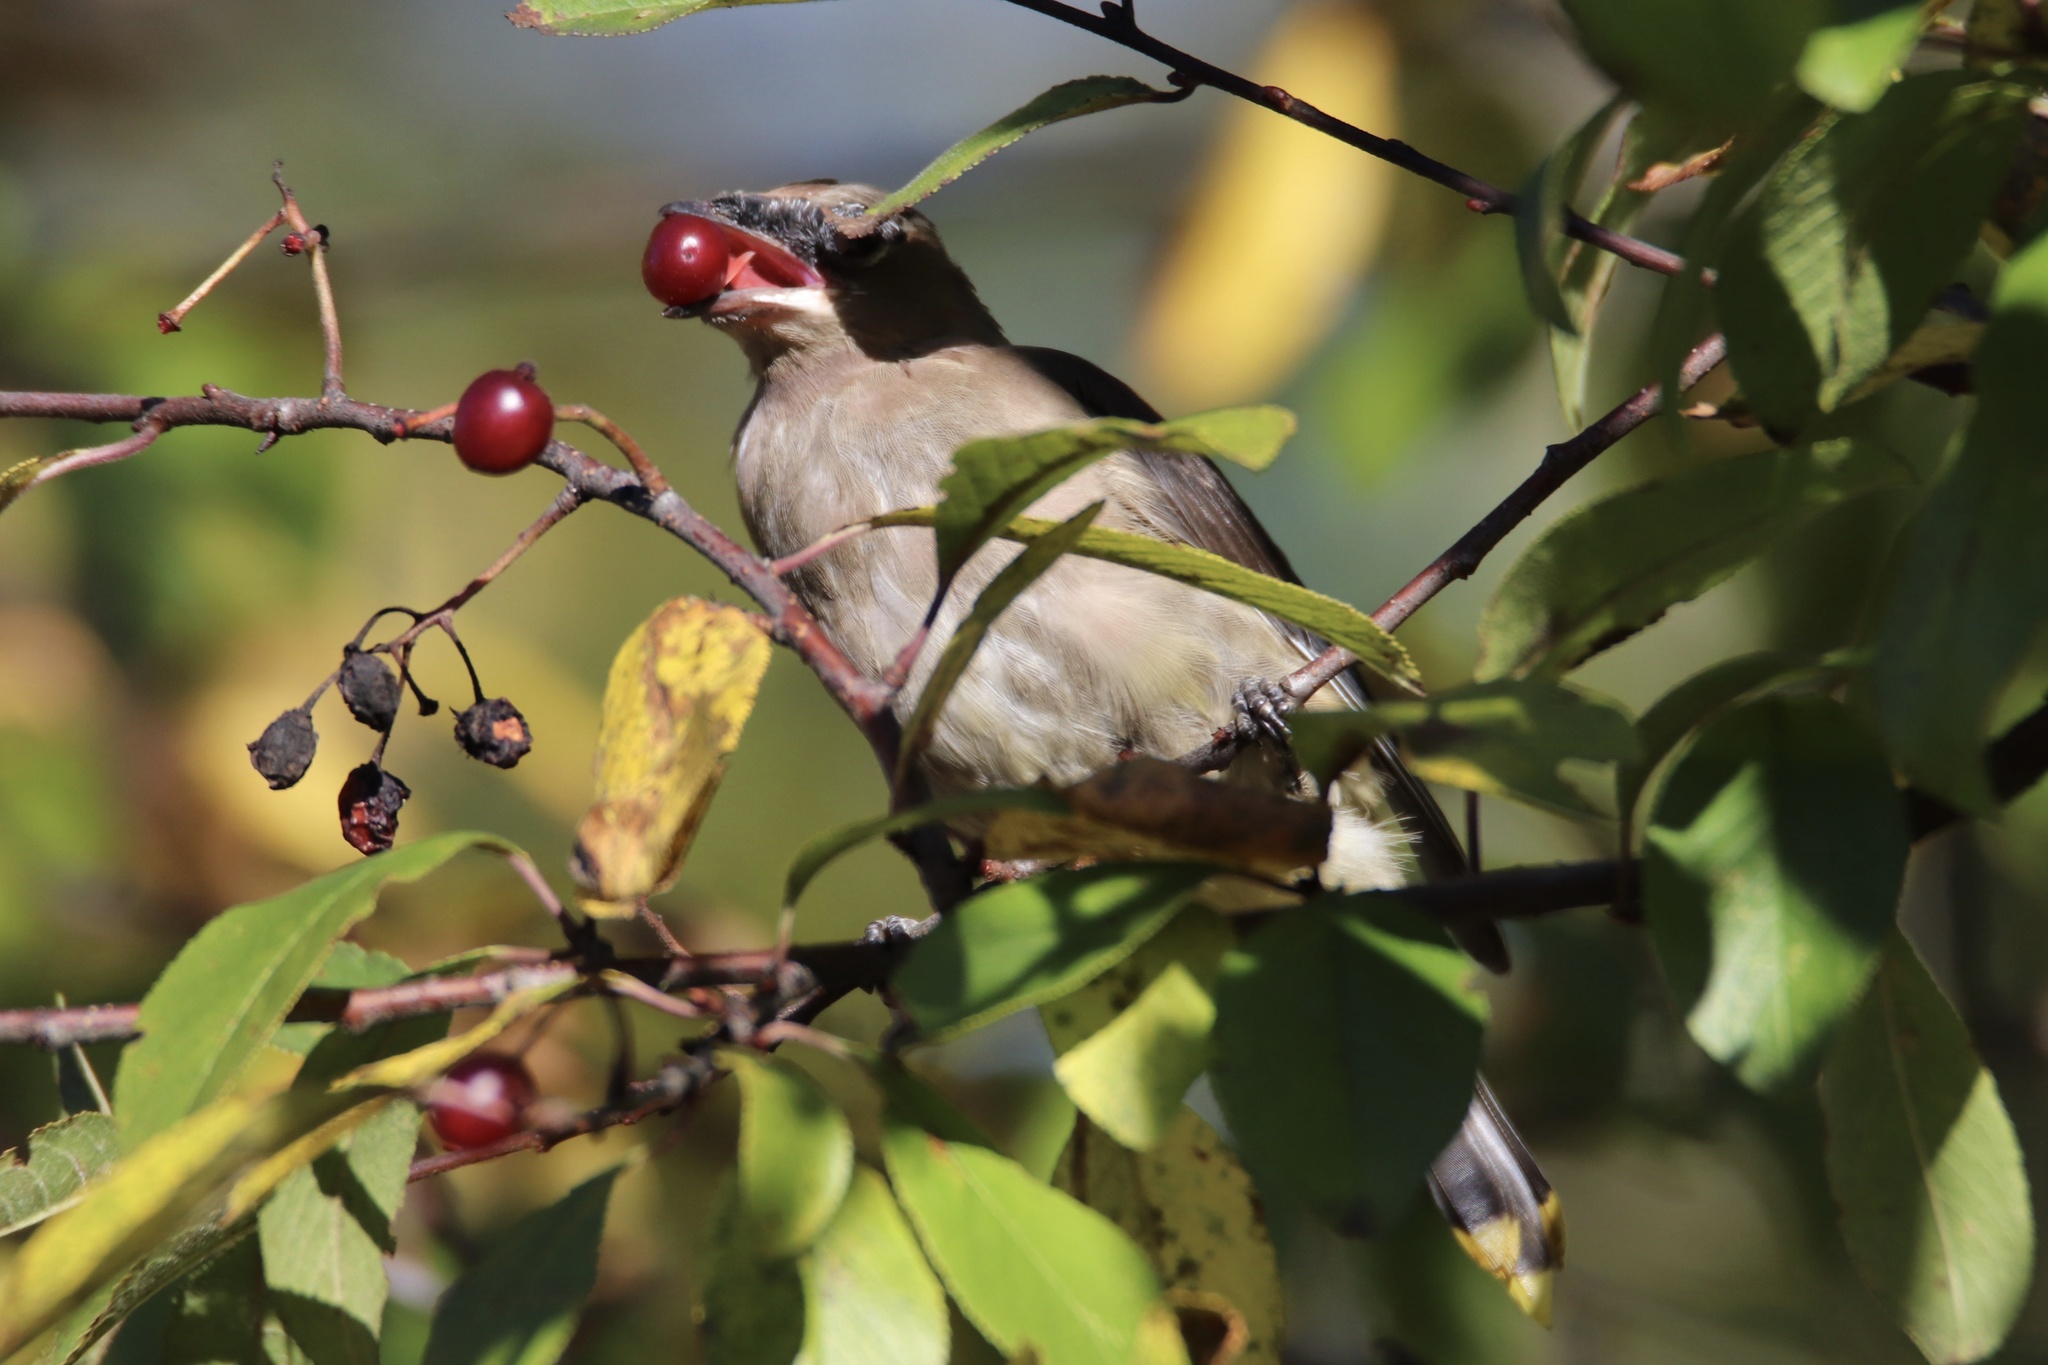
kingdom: Animalia
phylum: Chordata
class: Aves
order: Passeriformes
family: Bombycillidae
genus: Bombycilla
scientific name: Bombycilla cedrorum
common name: Cedar waxwing
